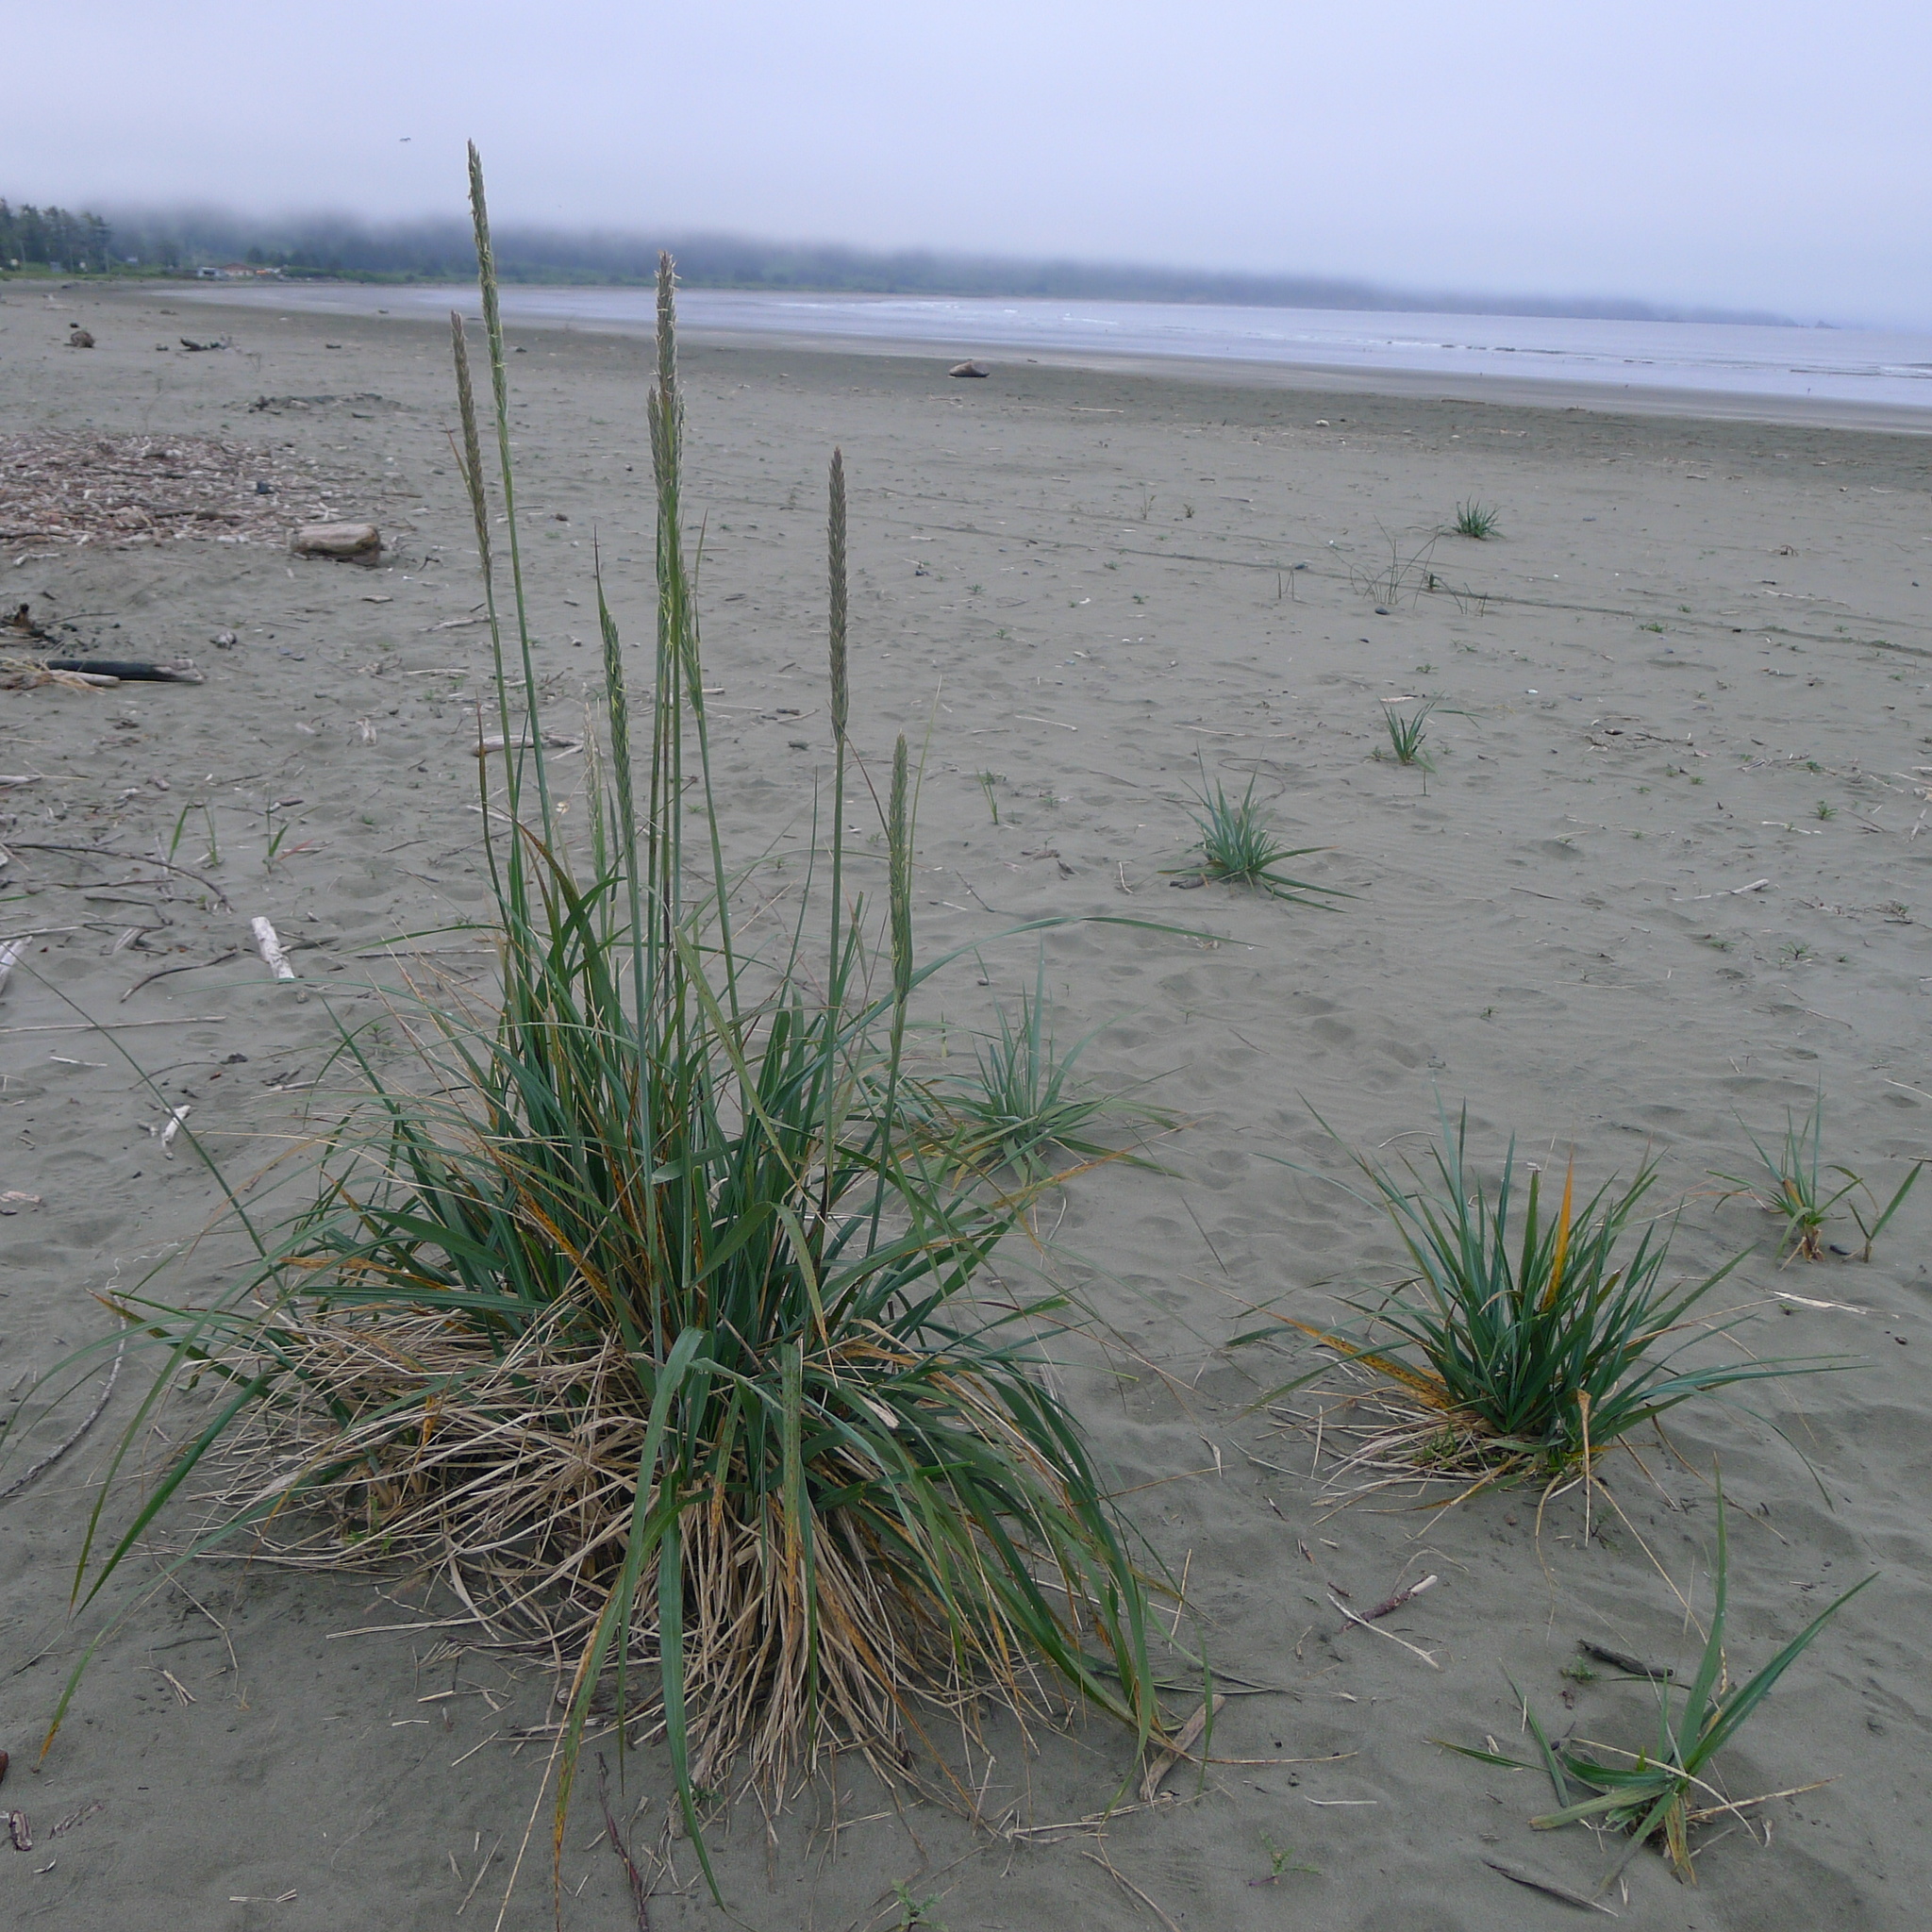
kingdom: Plantae
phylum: Tracheophyta
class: Liliopsida
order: Poales
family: Poaceae
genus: Leymus
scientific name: Leymus mollis
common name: American dune grass
